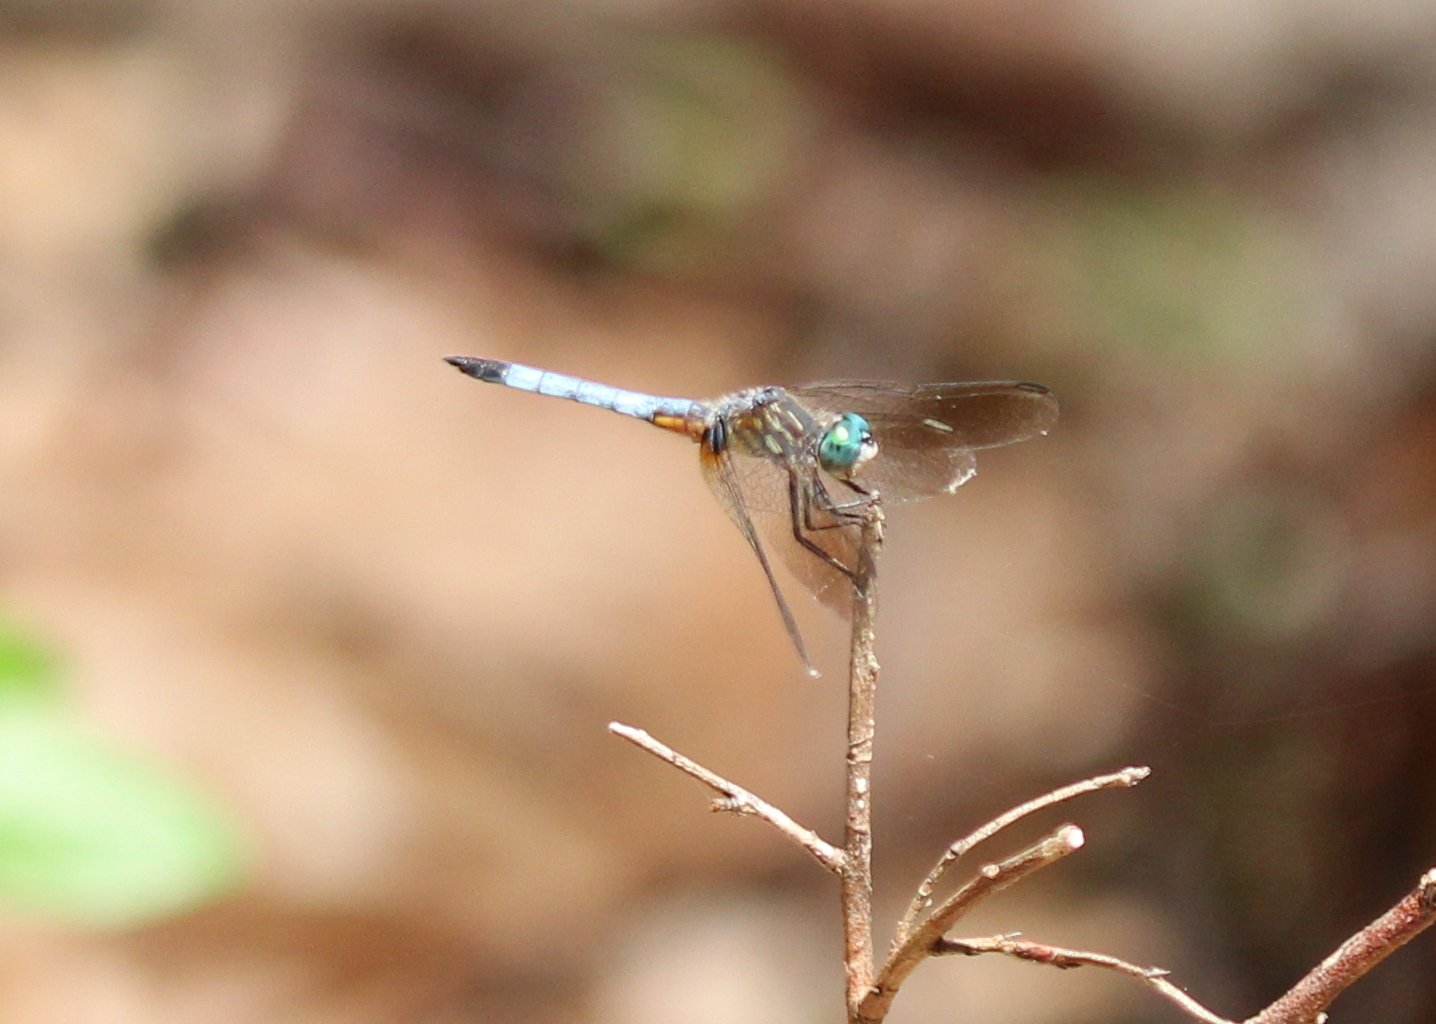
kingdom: Animalia
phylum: Arthropoda
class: Insecta
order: Odonata
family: Libellulidae
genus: Pachydiplax
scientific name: Pachydiplax longipennis
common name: Blue dasher
